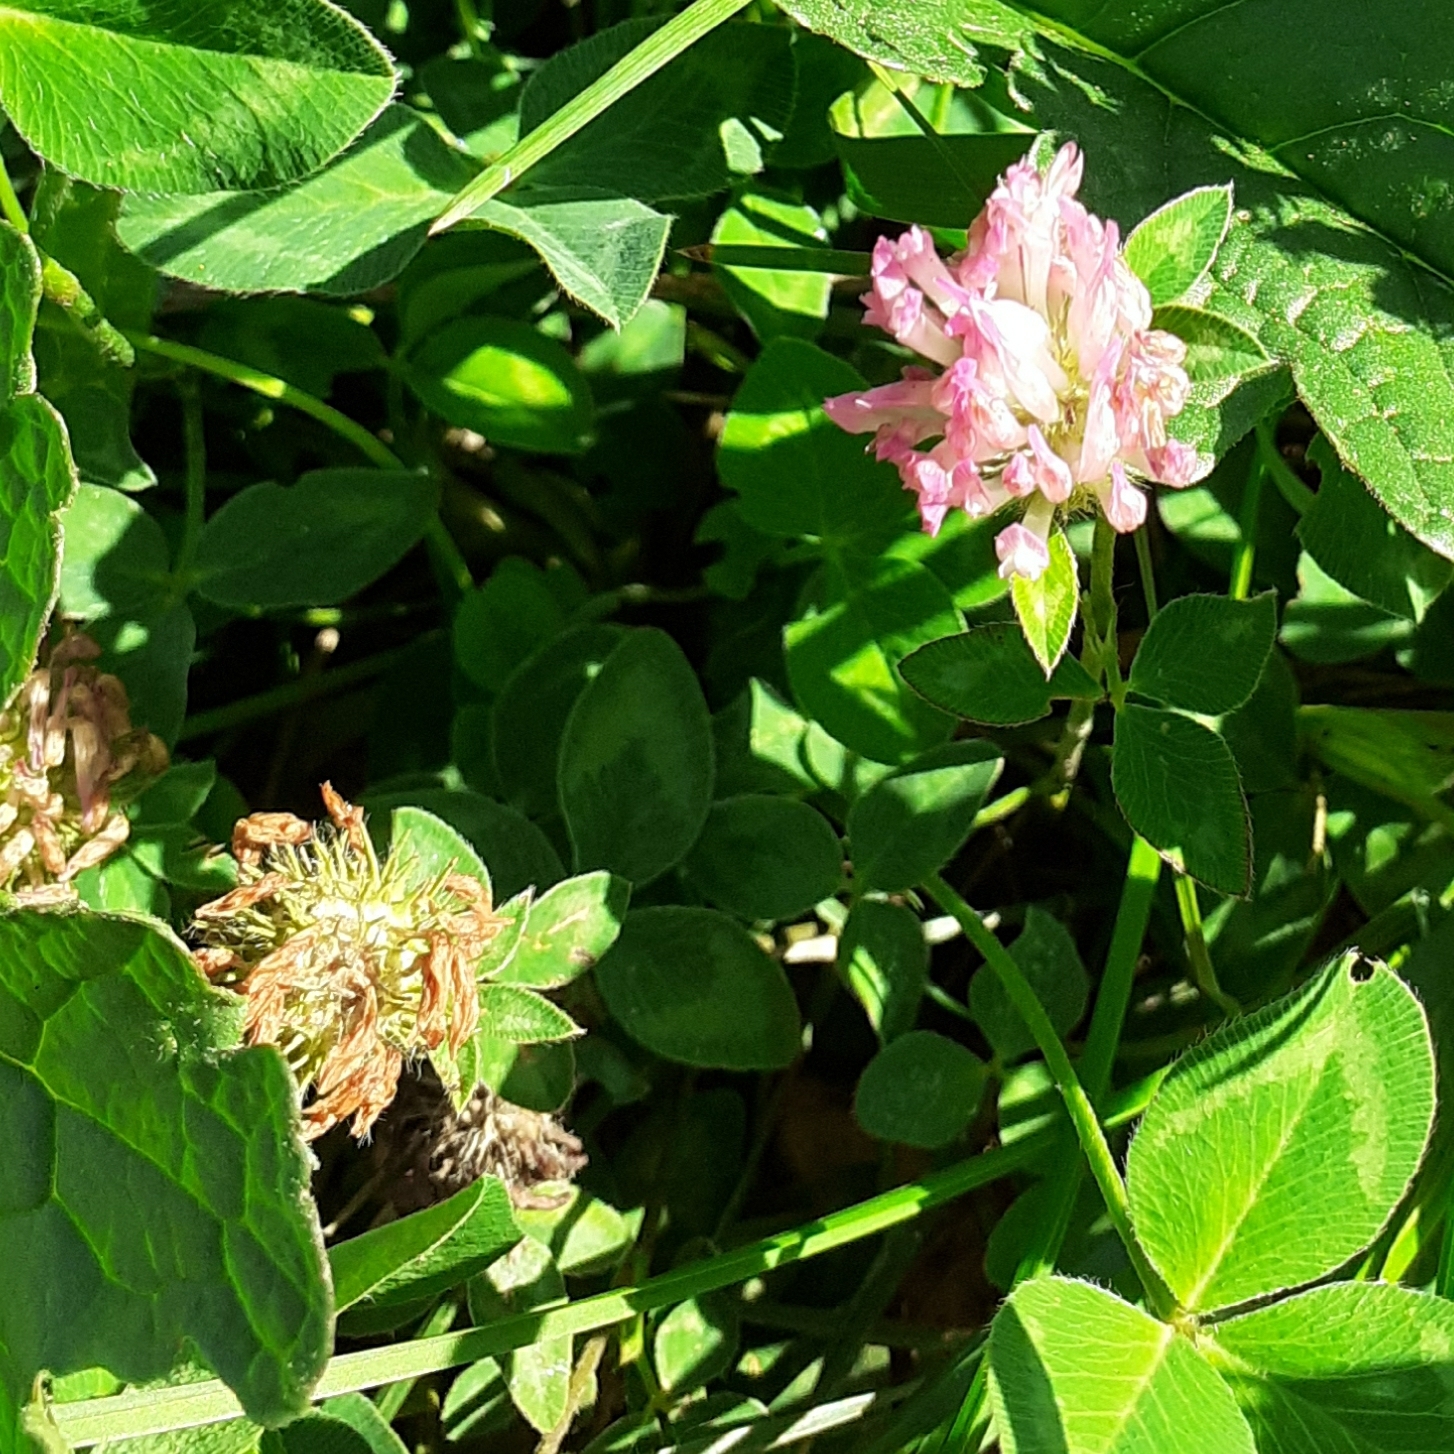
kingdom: Plantae
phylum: Tracheophyta
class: Magnoliopsida
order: Fabales
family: Fabaceae
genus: Trifolium
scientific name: Trifolium pratense
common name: Red clover
